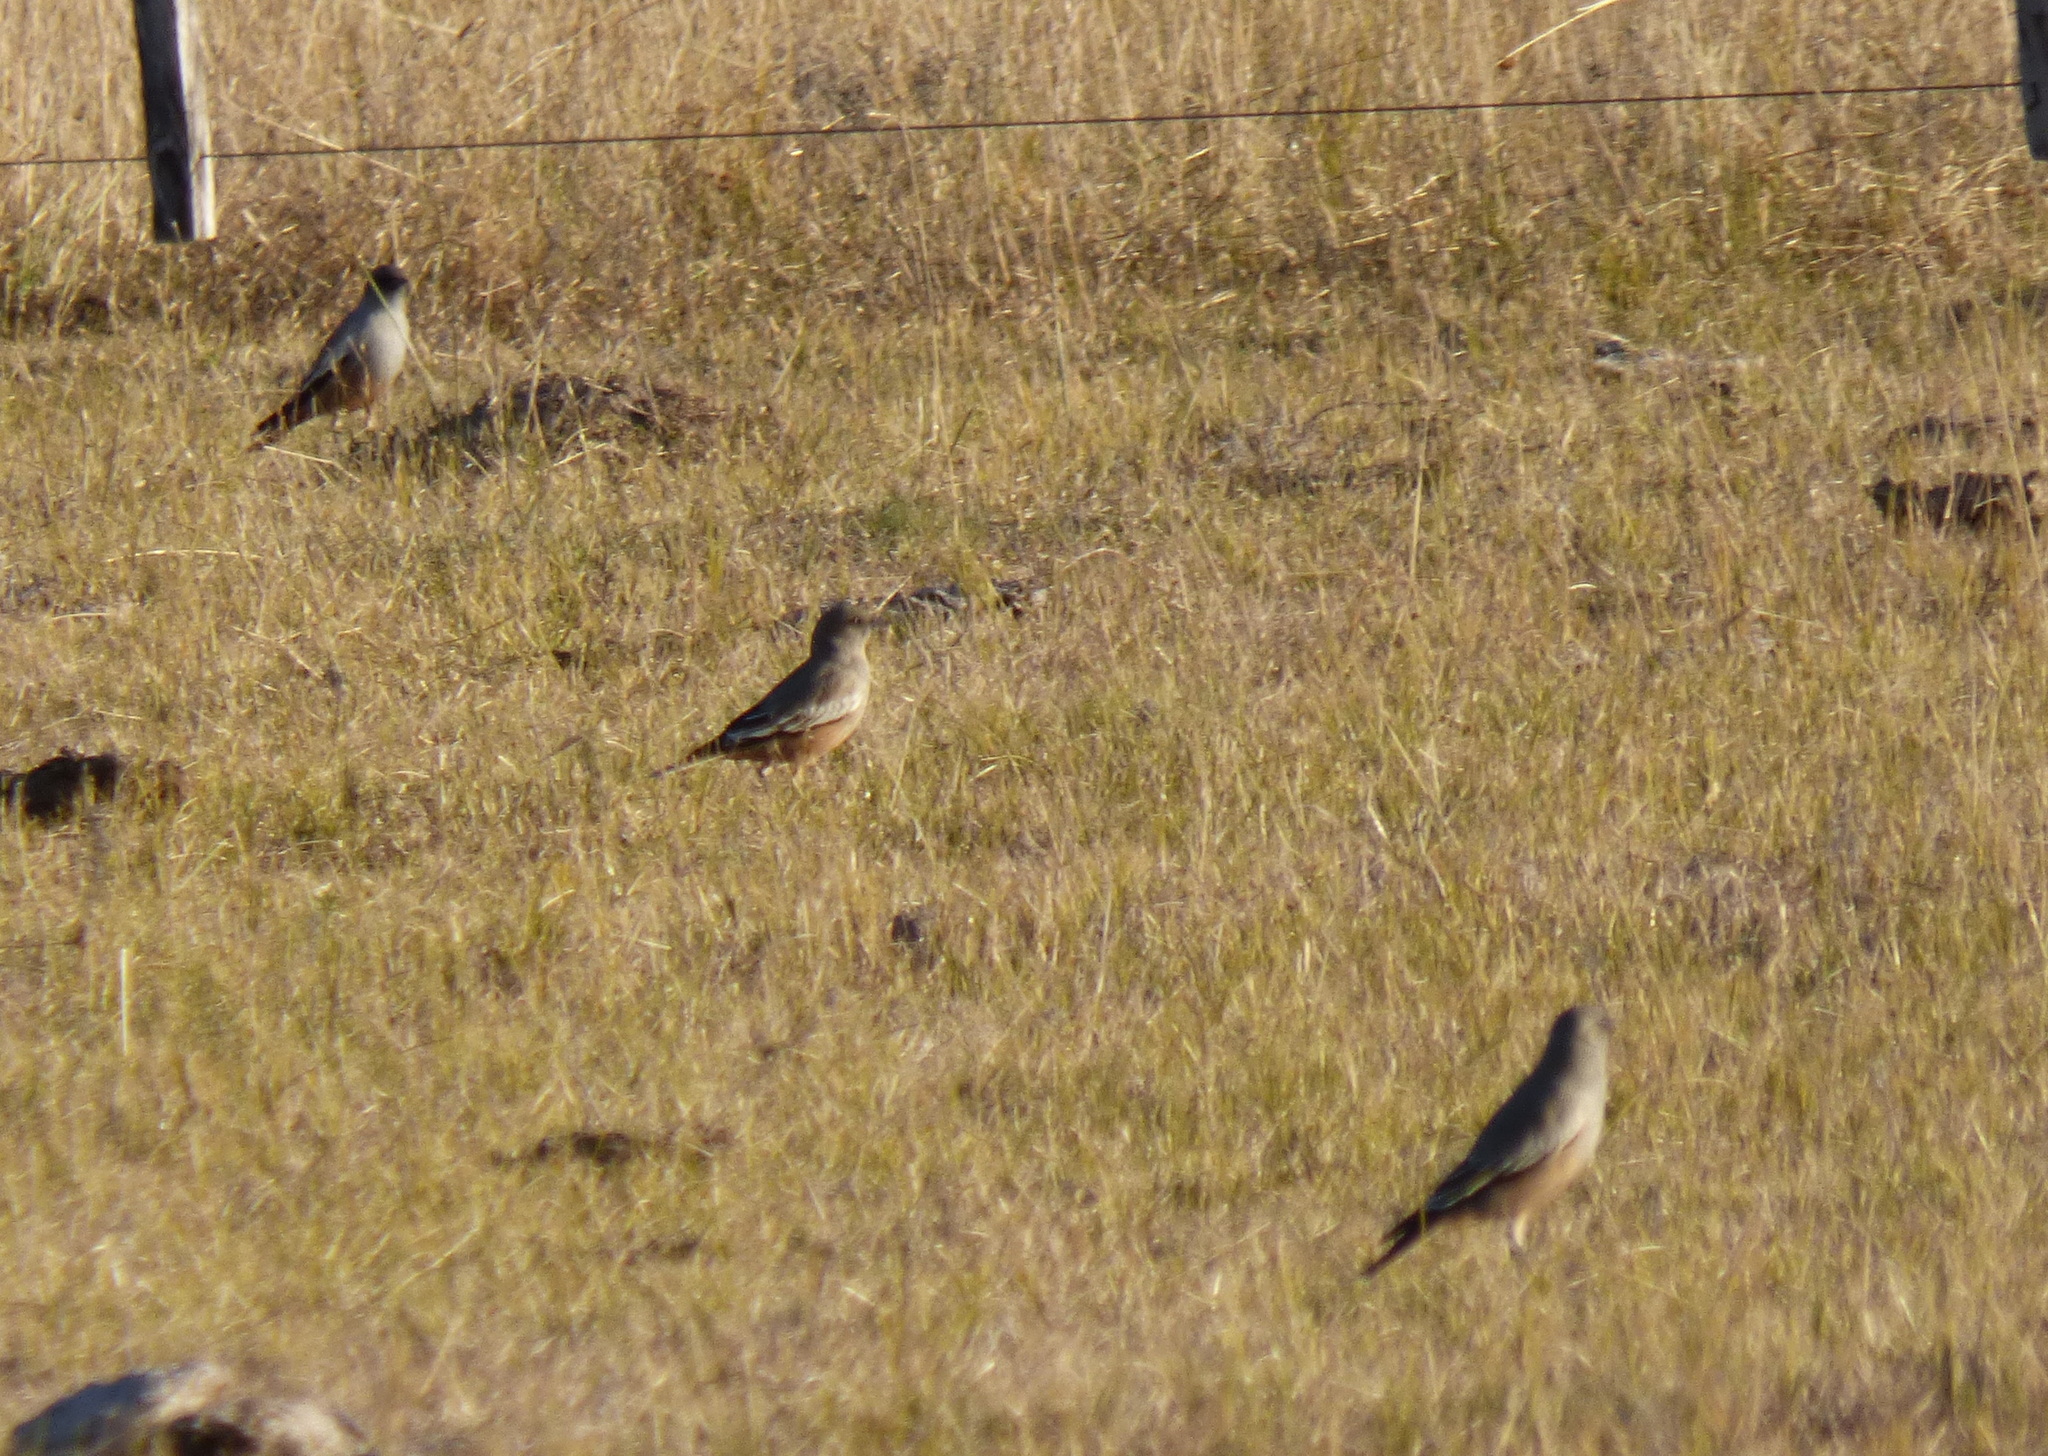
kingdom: Animalia
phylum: Chordata
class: Aves
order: Passeriformes
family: Tyrannidae
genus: Neoxolmis
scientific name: Neoxolmis rufiventris
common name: Chocolate-vented tyrant
